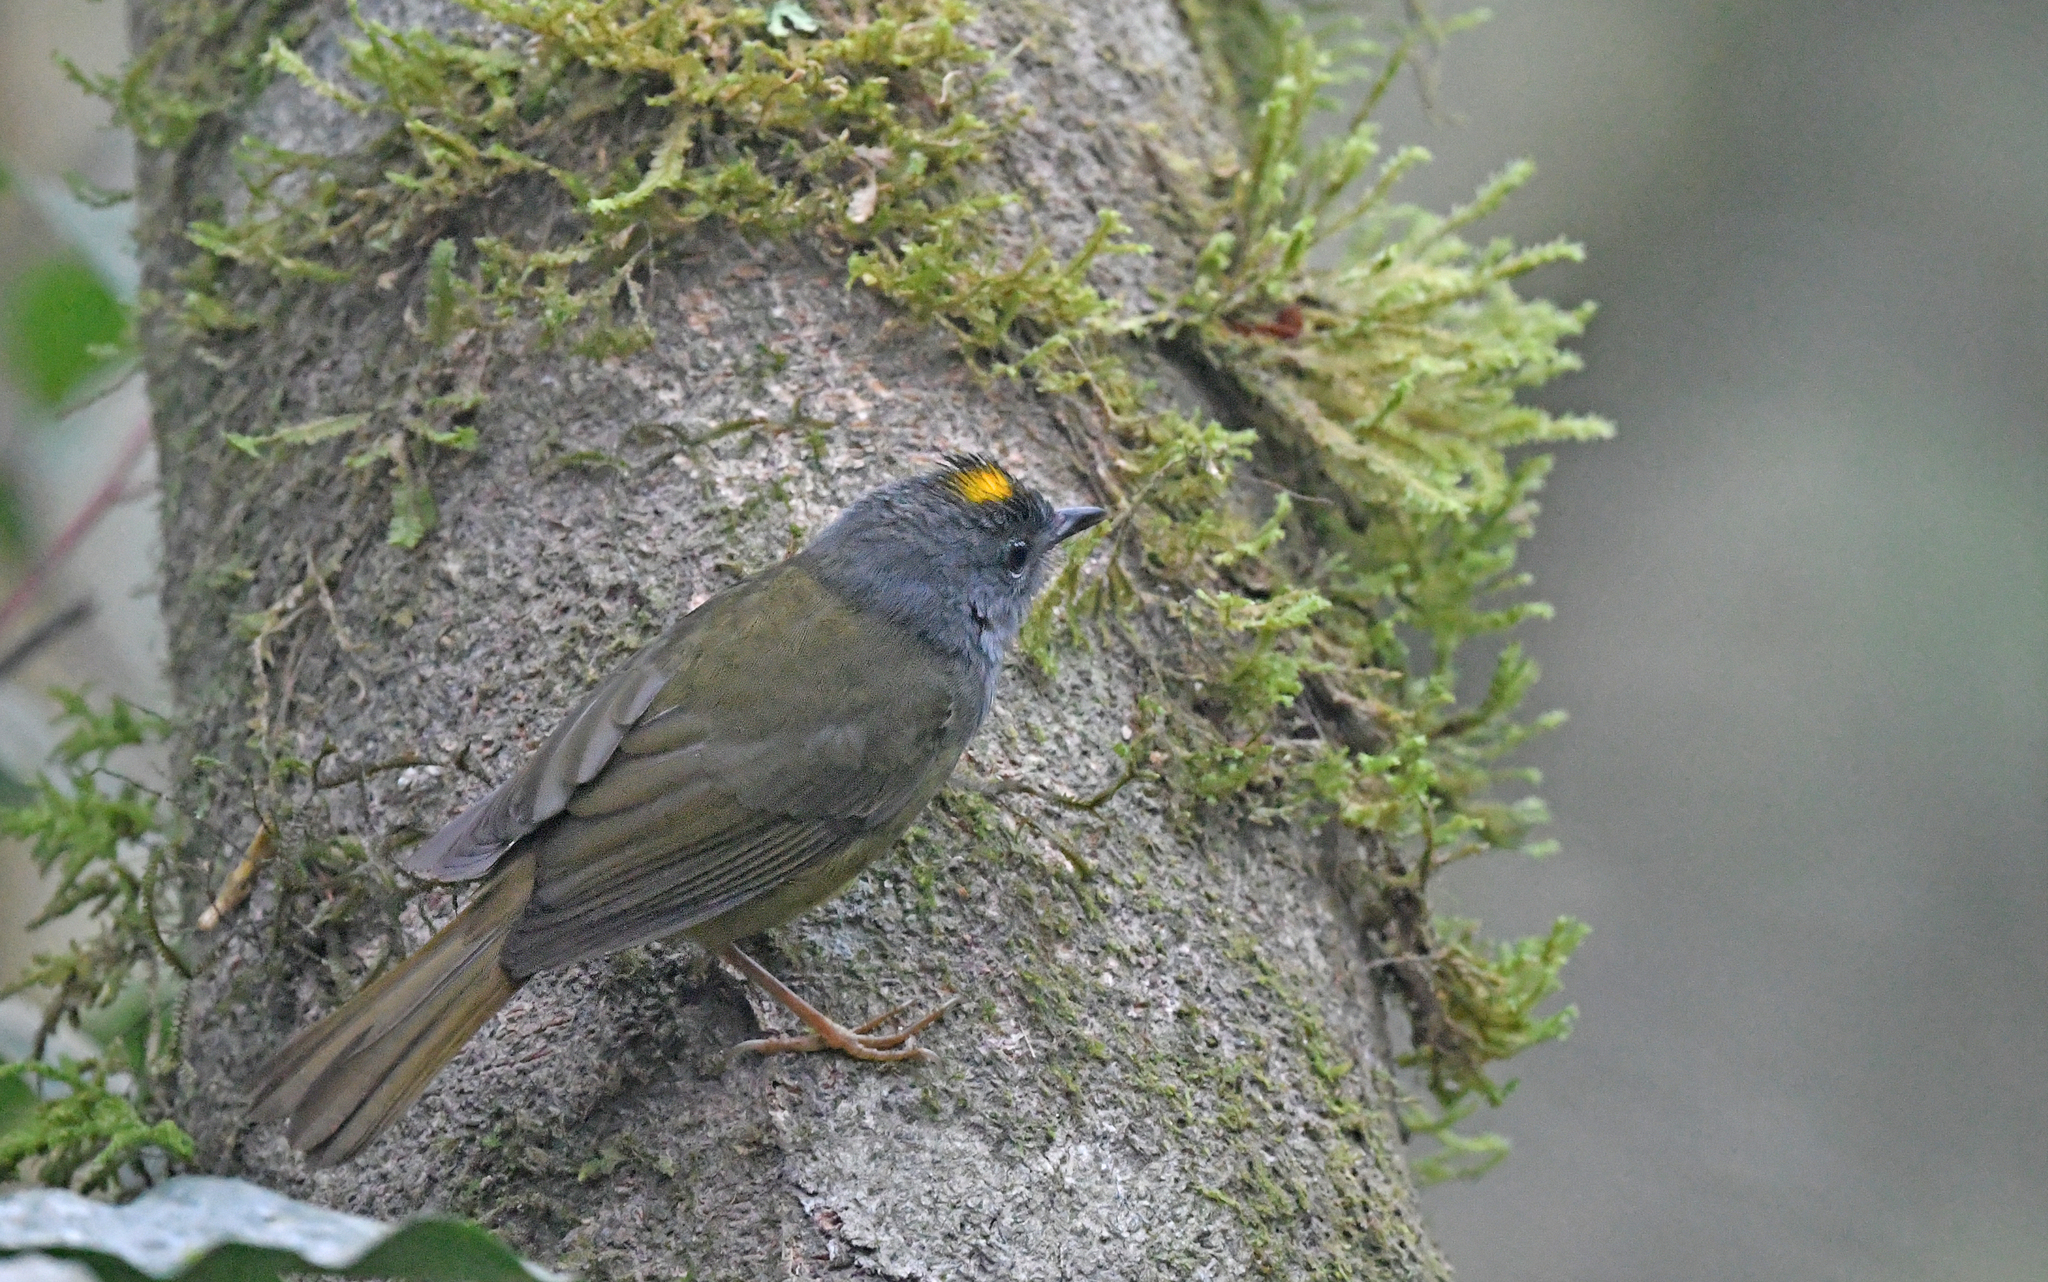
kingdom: Animalia
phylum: Chordata
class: Aves
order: Passeriformes
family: Parulidae
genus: Myiothlypis
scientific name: Myiothlypis cinereicollis
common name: Grey-throated warbler
